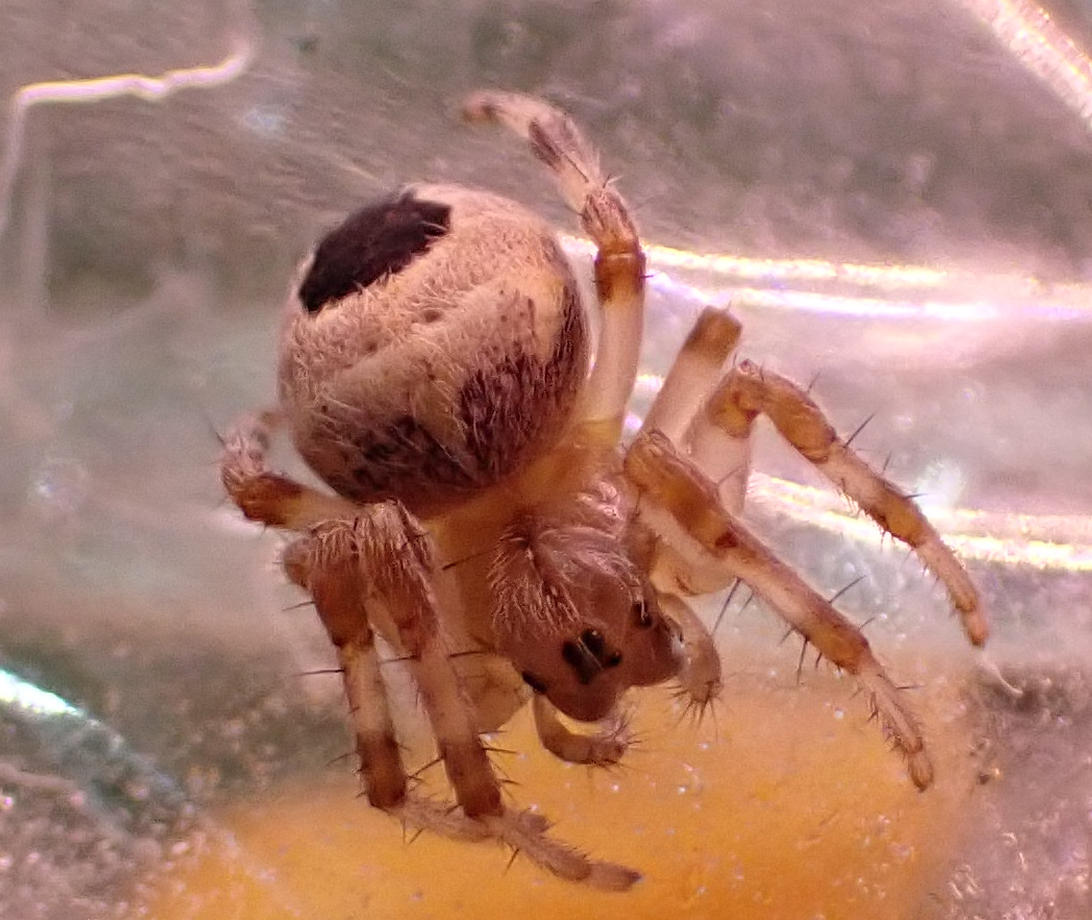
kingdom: Animalia
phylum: Arthropoda
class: Arachnida
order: Araneae
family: Araneidae
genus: Araneus
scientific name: Araneus marmoreus
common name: Marbled orbweaver
